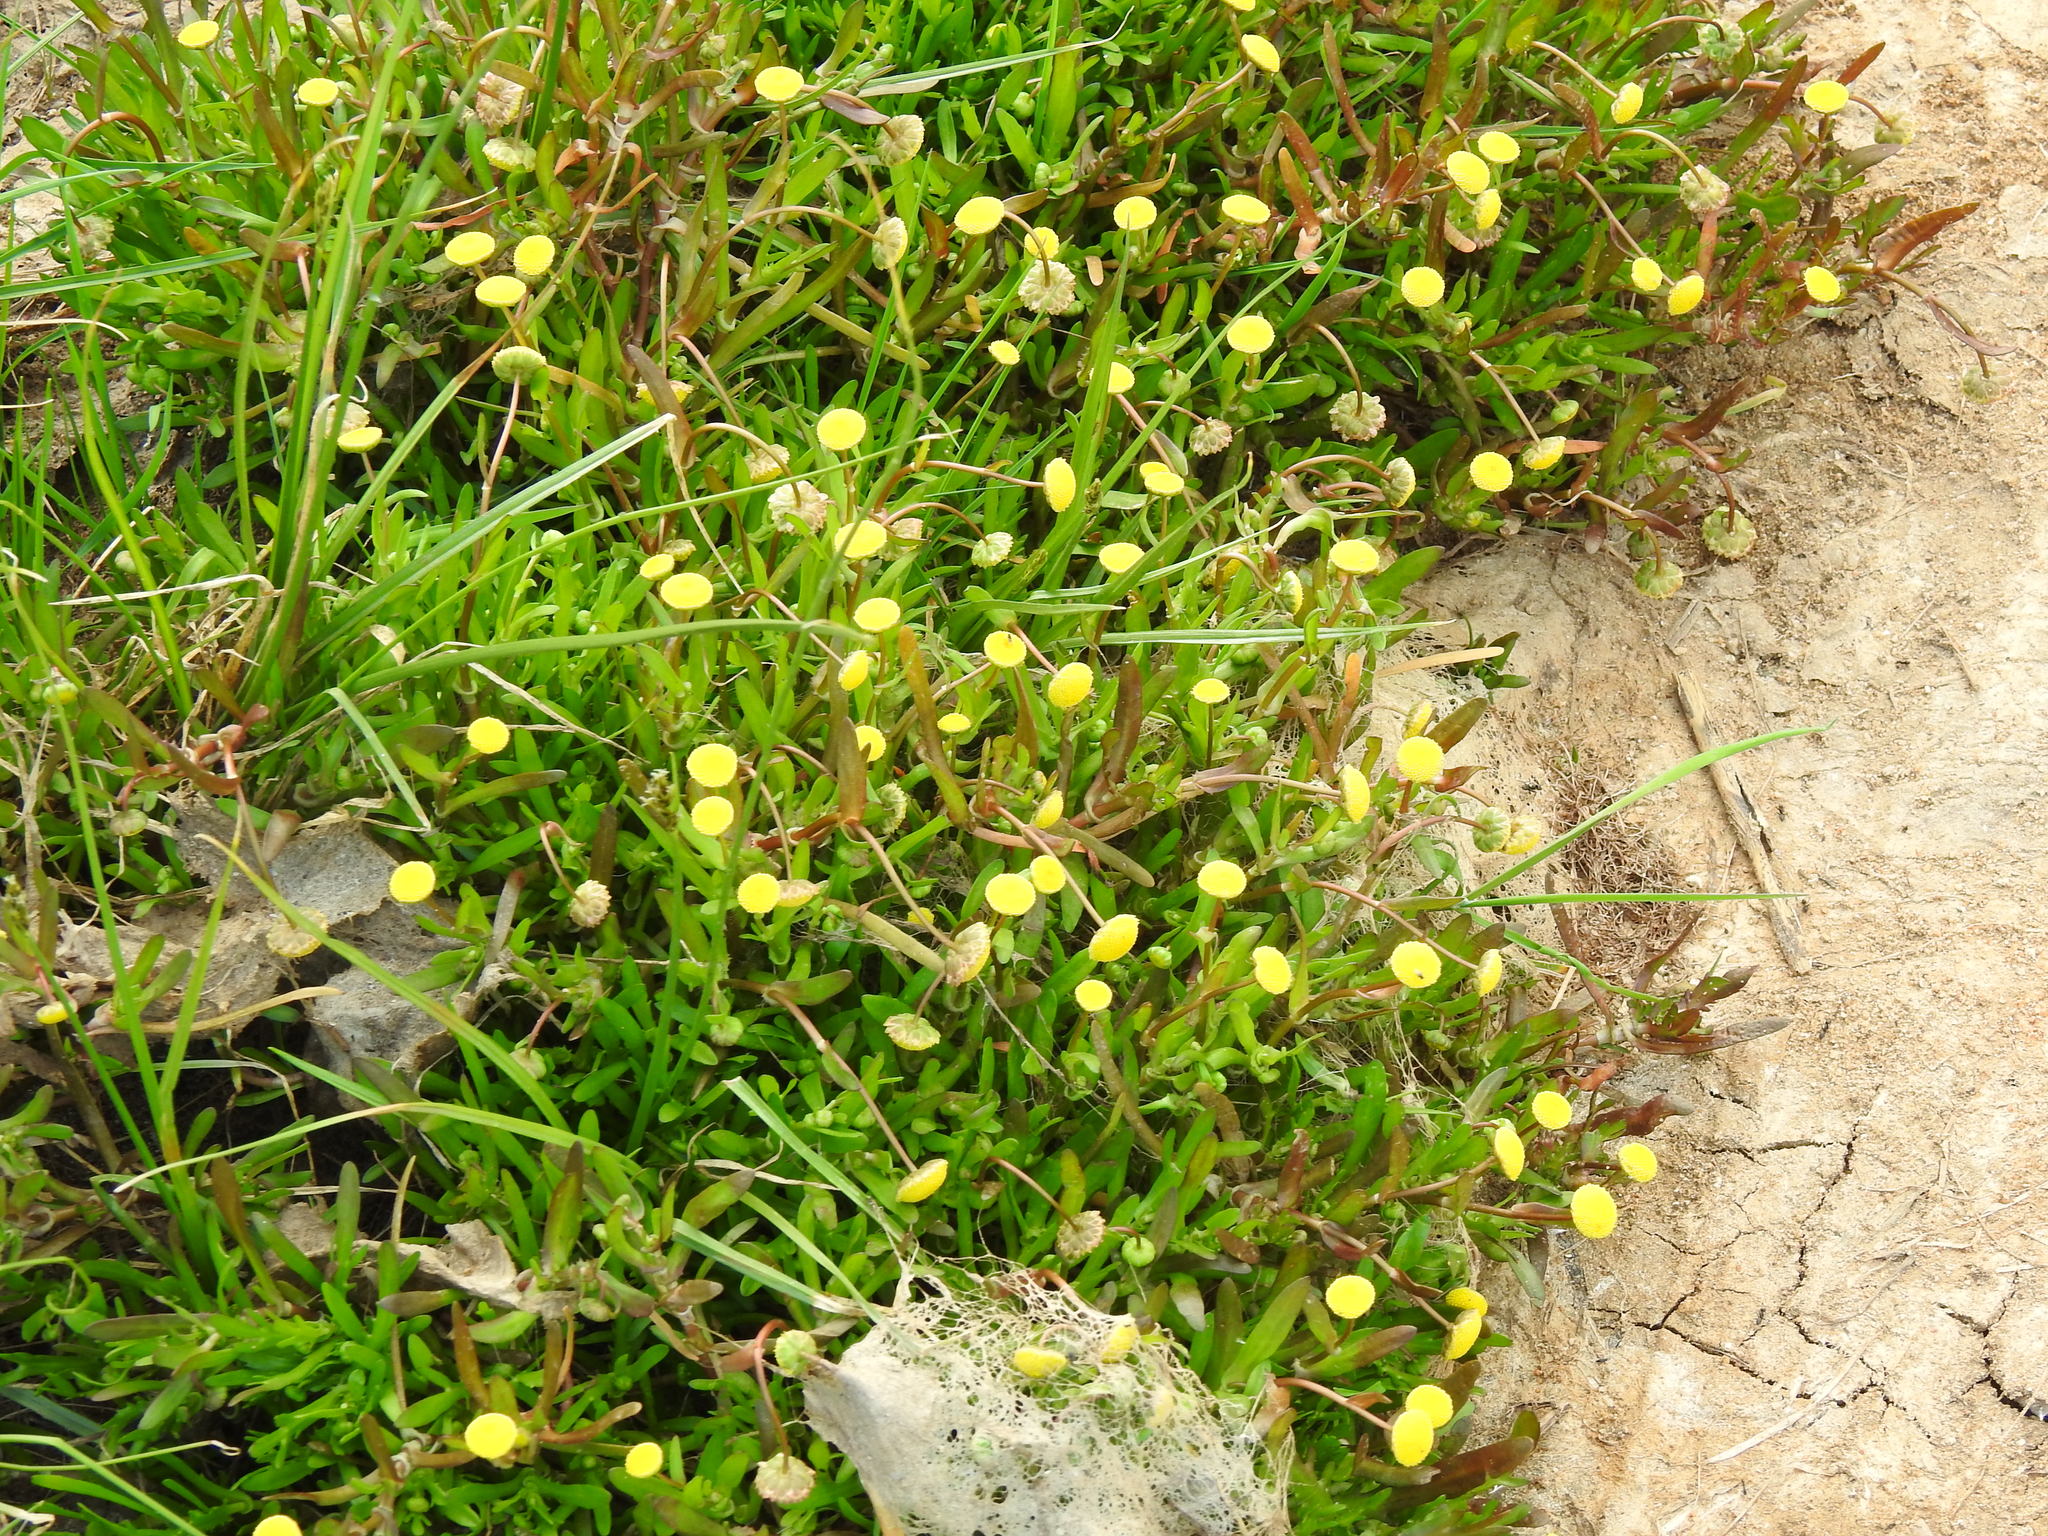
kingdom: Plantae
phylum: Tracheophyta
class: Magnoliopsida
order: Asterales
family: Asteraceae
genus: Cotula
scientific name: Cotula coronopifolia
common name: Buttonweed
